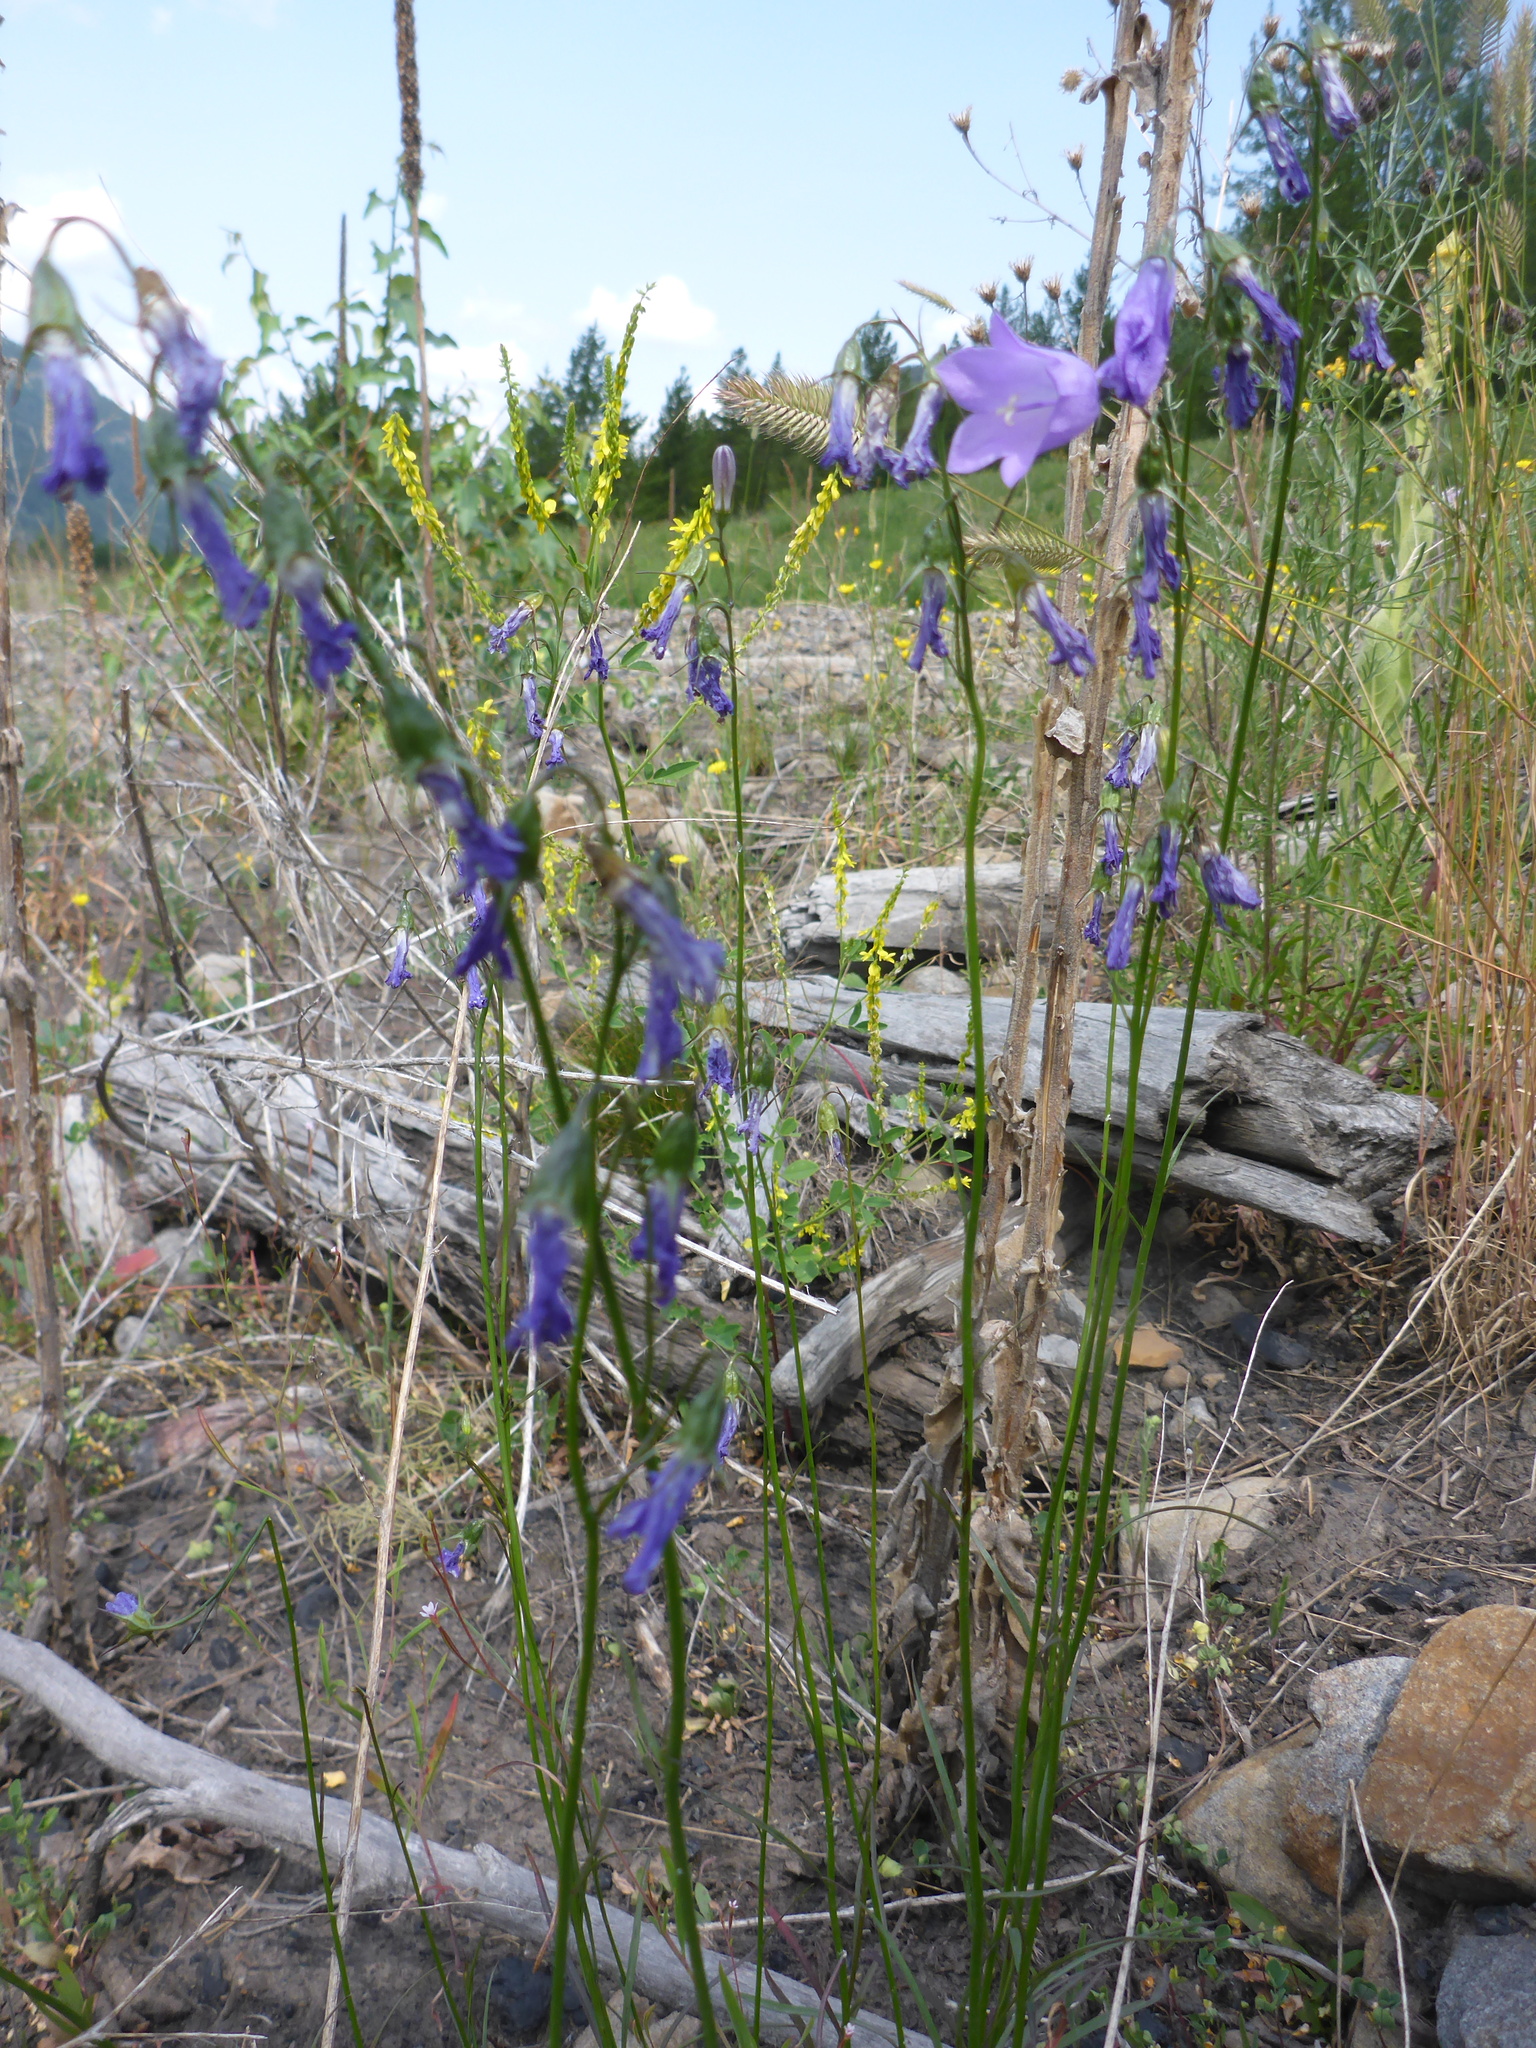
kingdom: Plantae
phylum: Tracheophyta
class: Magnoliopsida
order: Asterales
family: Campanulaceae
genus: Campanula
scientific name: Campanula alaskana
